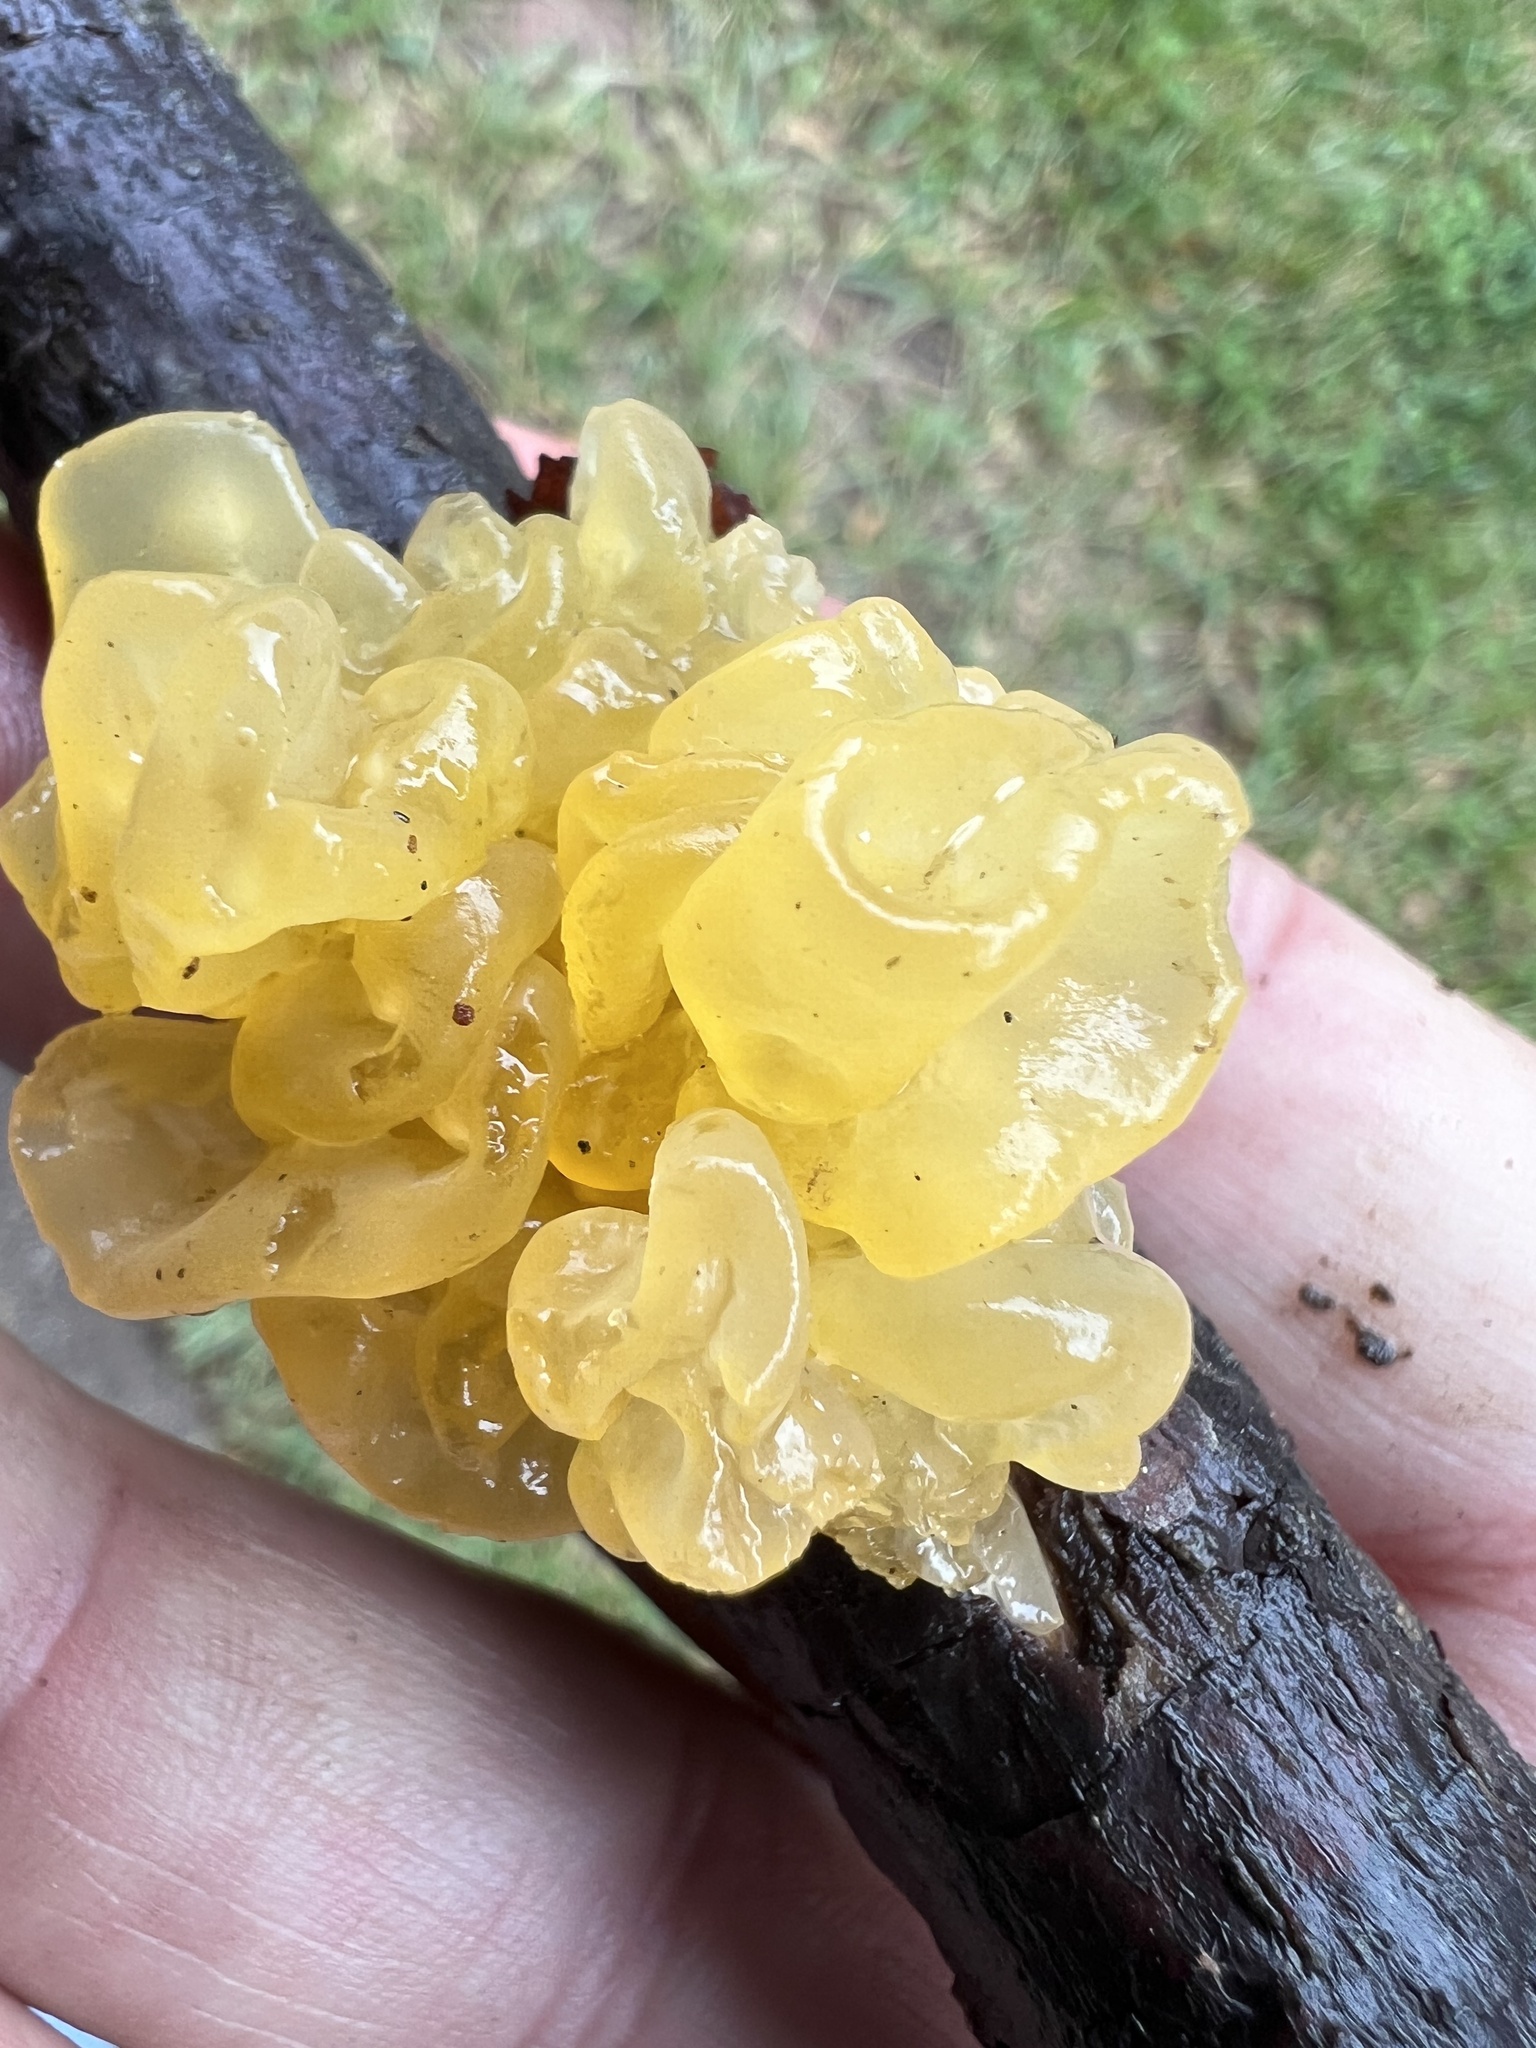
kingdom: Fungi
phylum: Basidiomycota
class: Tremellomycetes
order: Tremellales
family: Tremellaceae
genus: Tremella
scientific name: Tremella mesenterica
